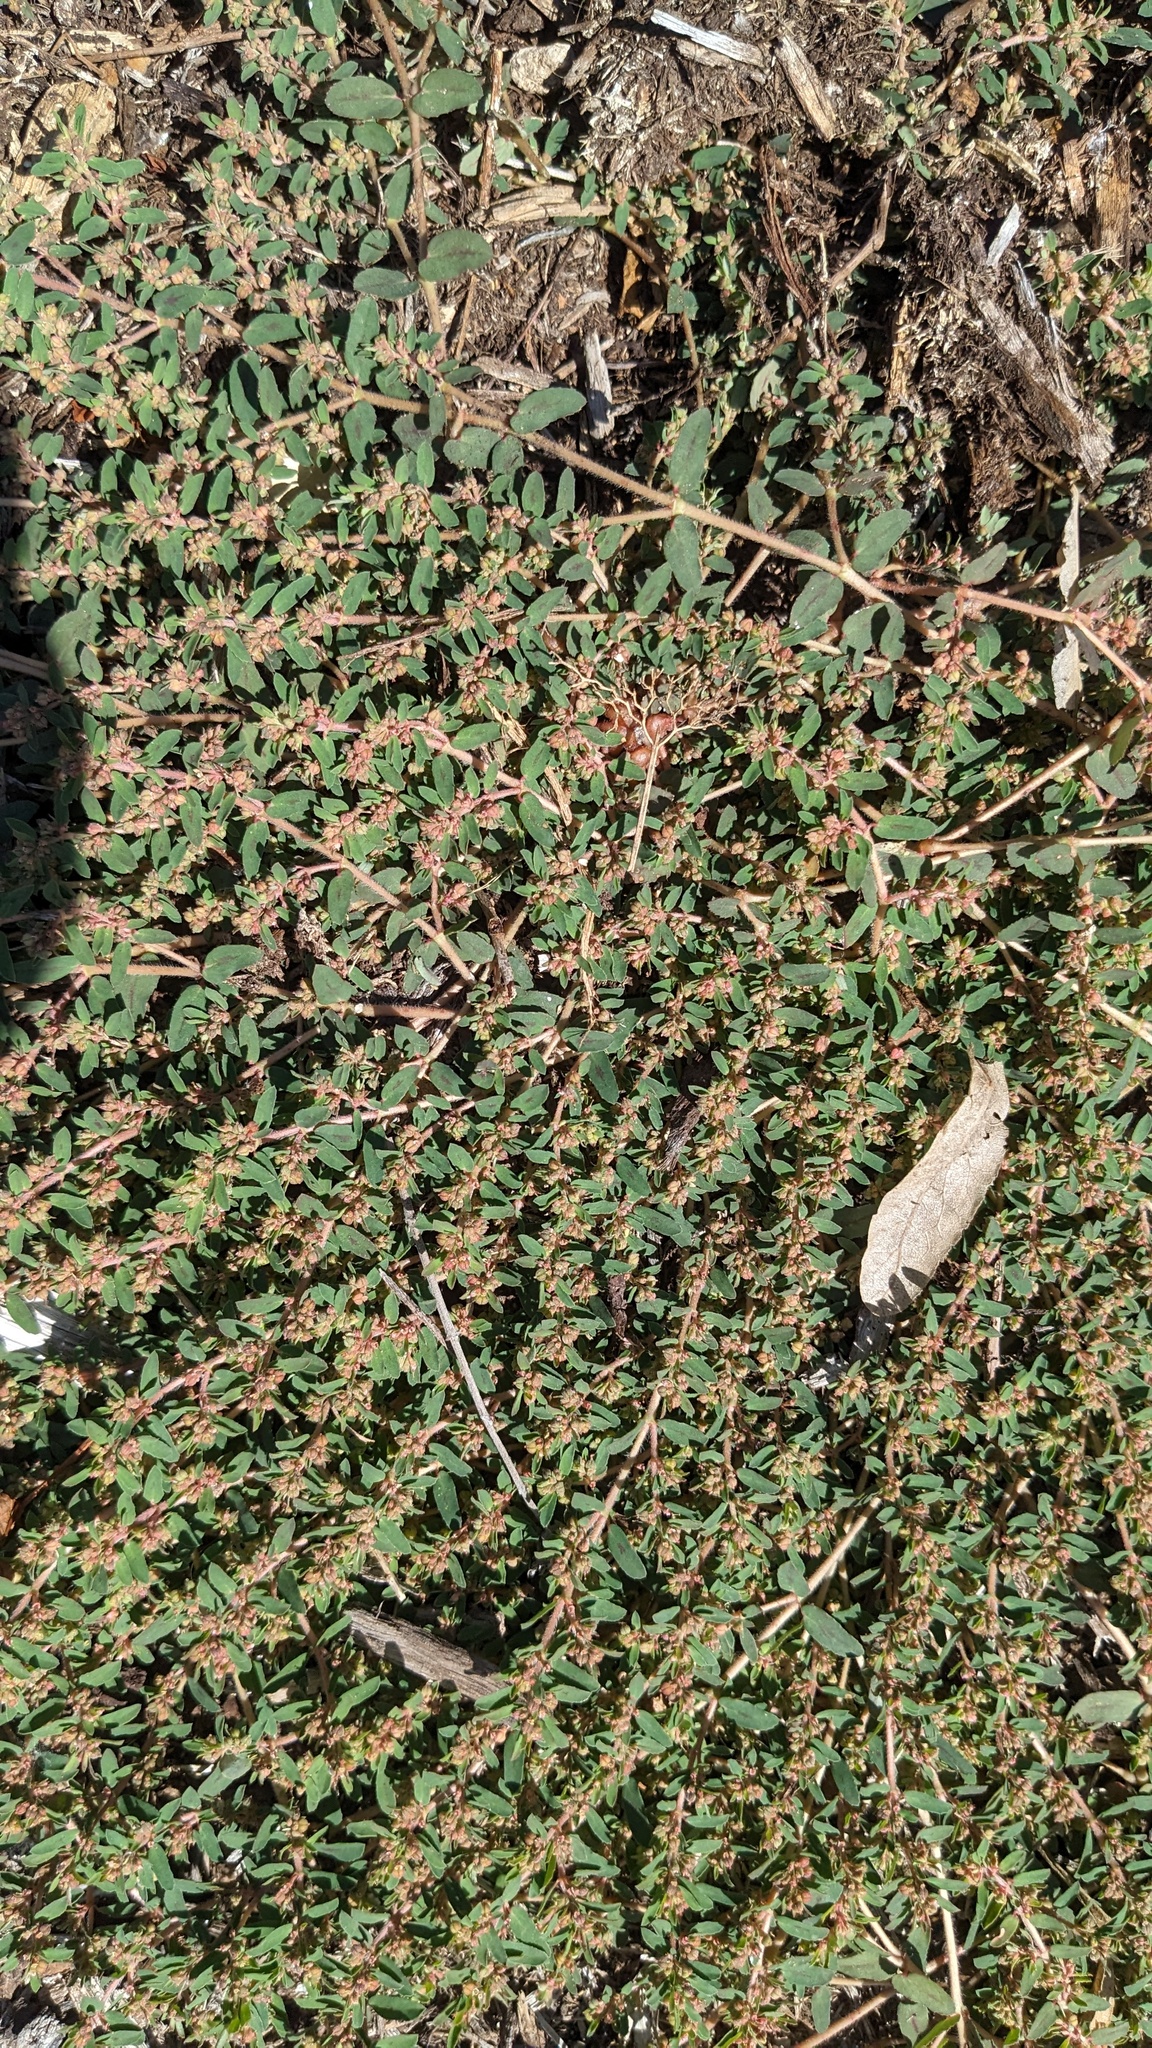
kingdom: Plantae
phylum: Tracheophyta
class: Magnoliopsida
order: Malpighiales
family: Euphorbiaceae
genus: Euphorbia
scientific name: Euphorbia maculata
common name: Spotted spurge
